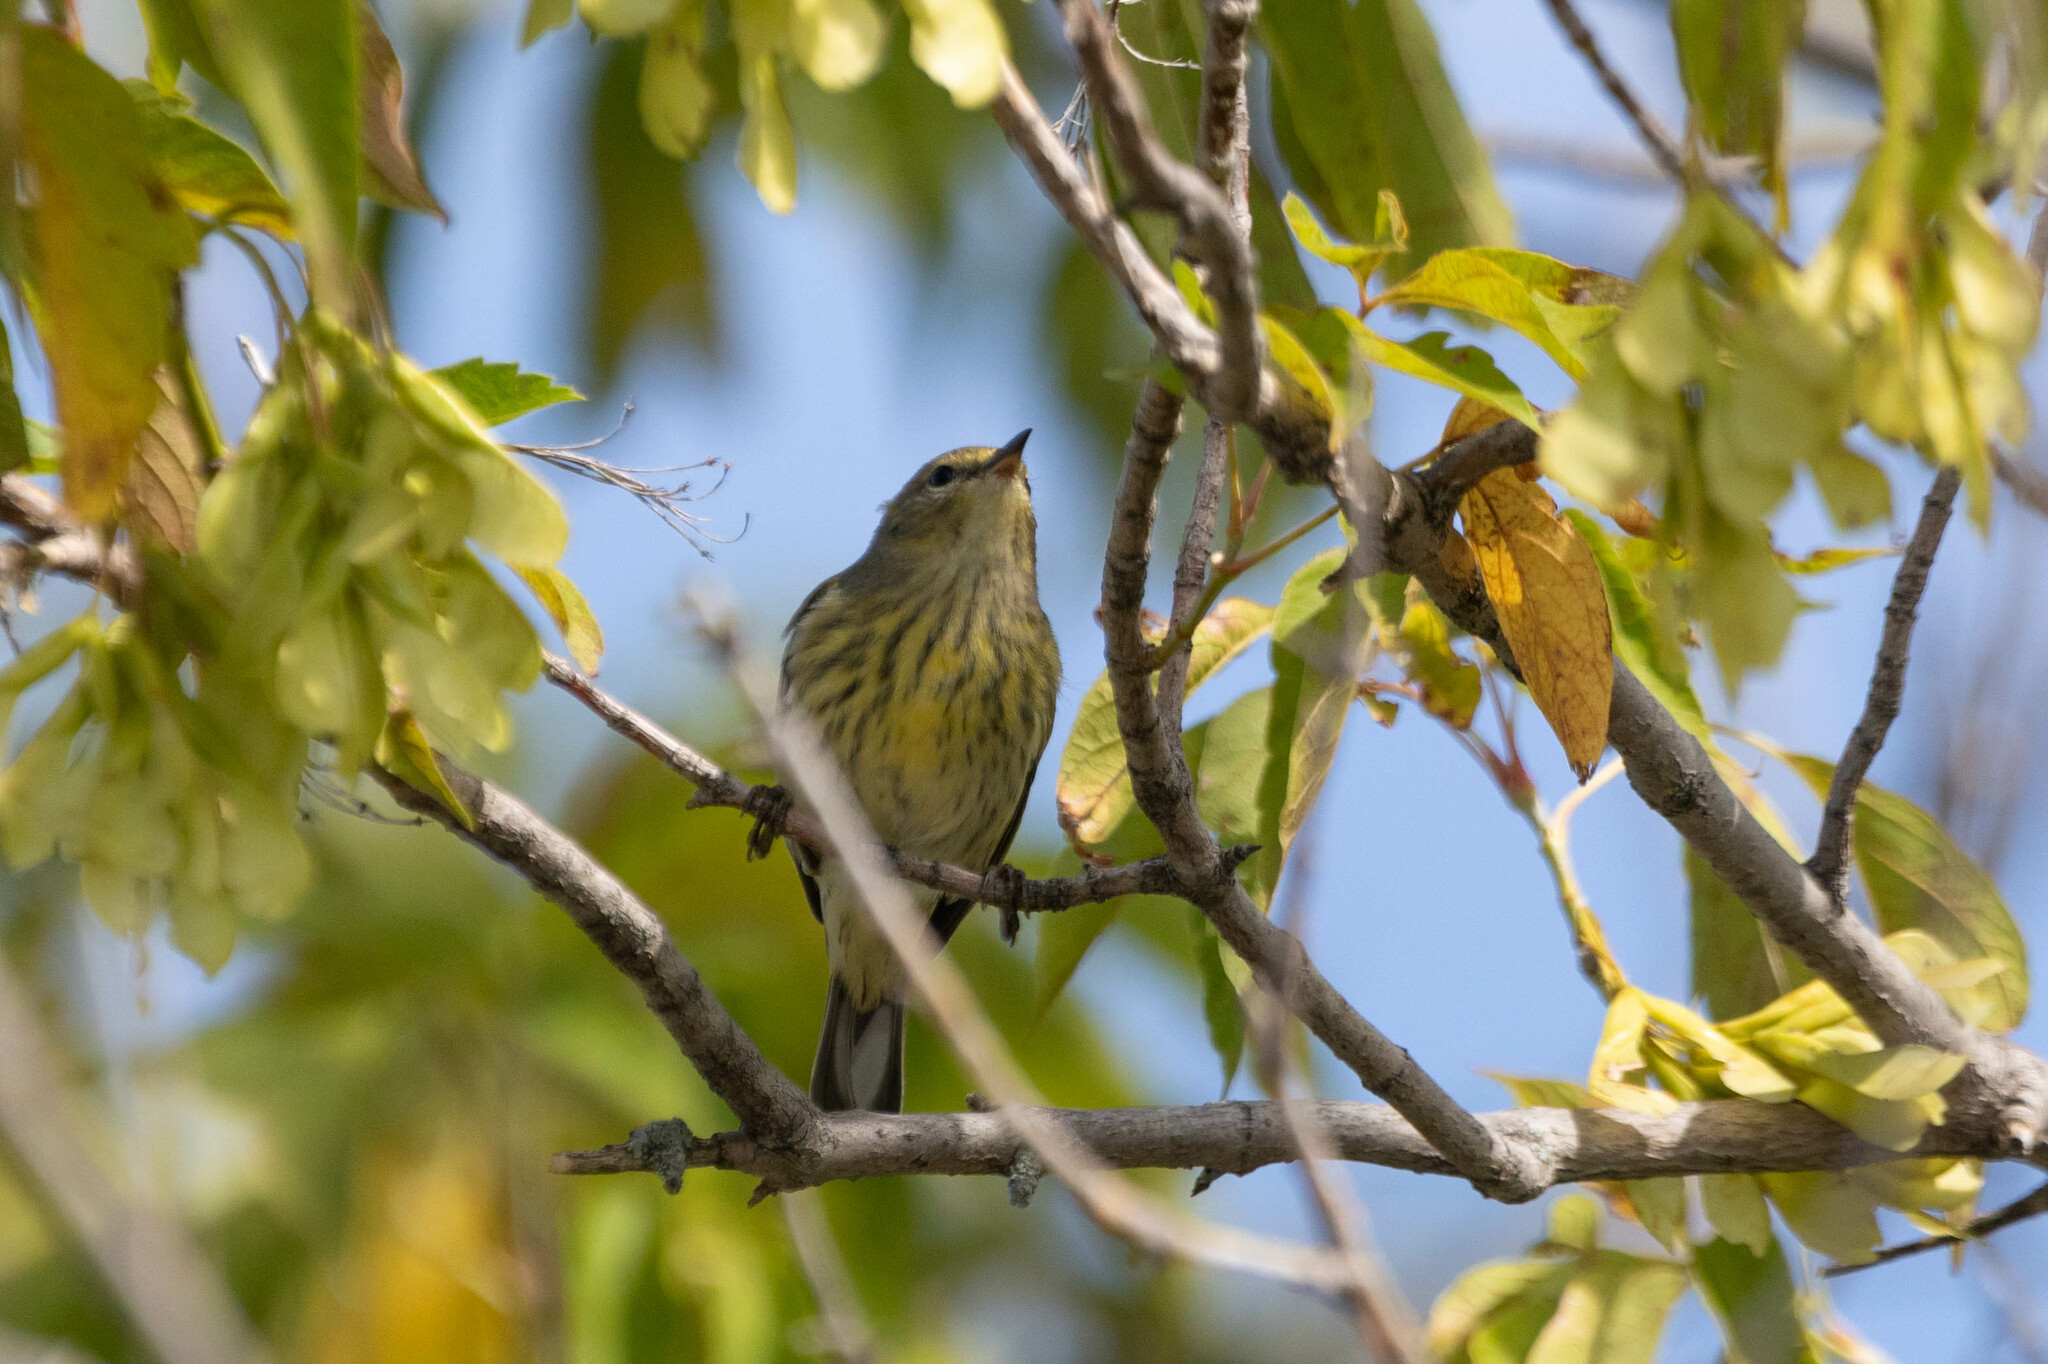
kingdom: Animalia
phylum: Chordata
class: Aves
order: Passeriformes
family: Parulidae
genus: Setophaga
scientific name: Setophaga tigrina
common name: Cape may warbler
